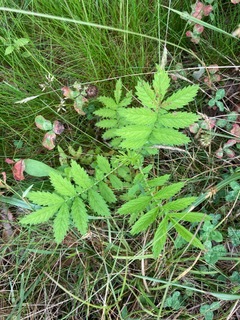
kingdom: Plantae
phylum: Tracheophyta
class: Magnoliopsida
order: Rosales
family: Rosaceae
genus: Agrimonia
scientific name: Agrimonia parviflora
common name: Harvest-lice
